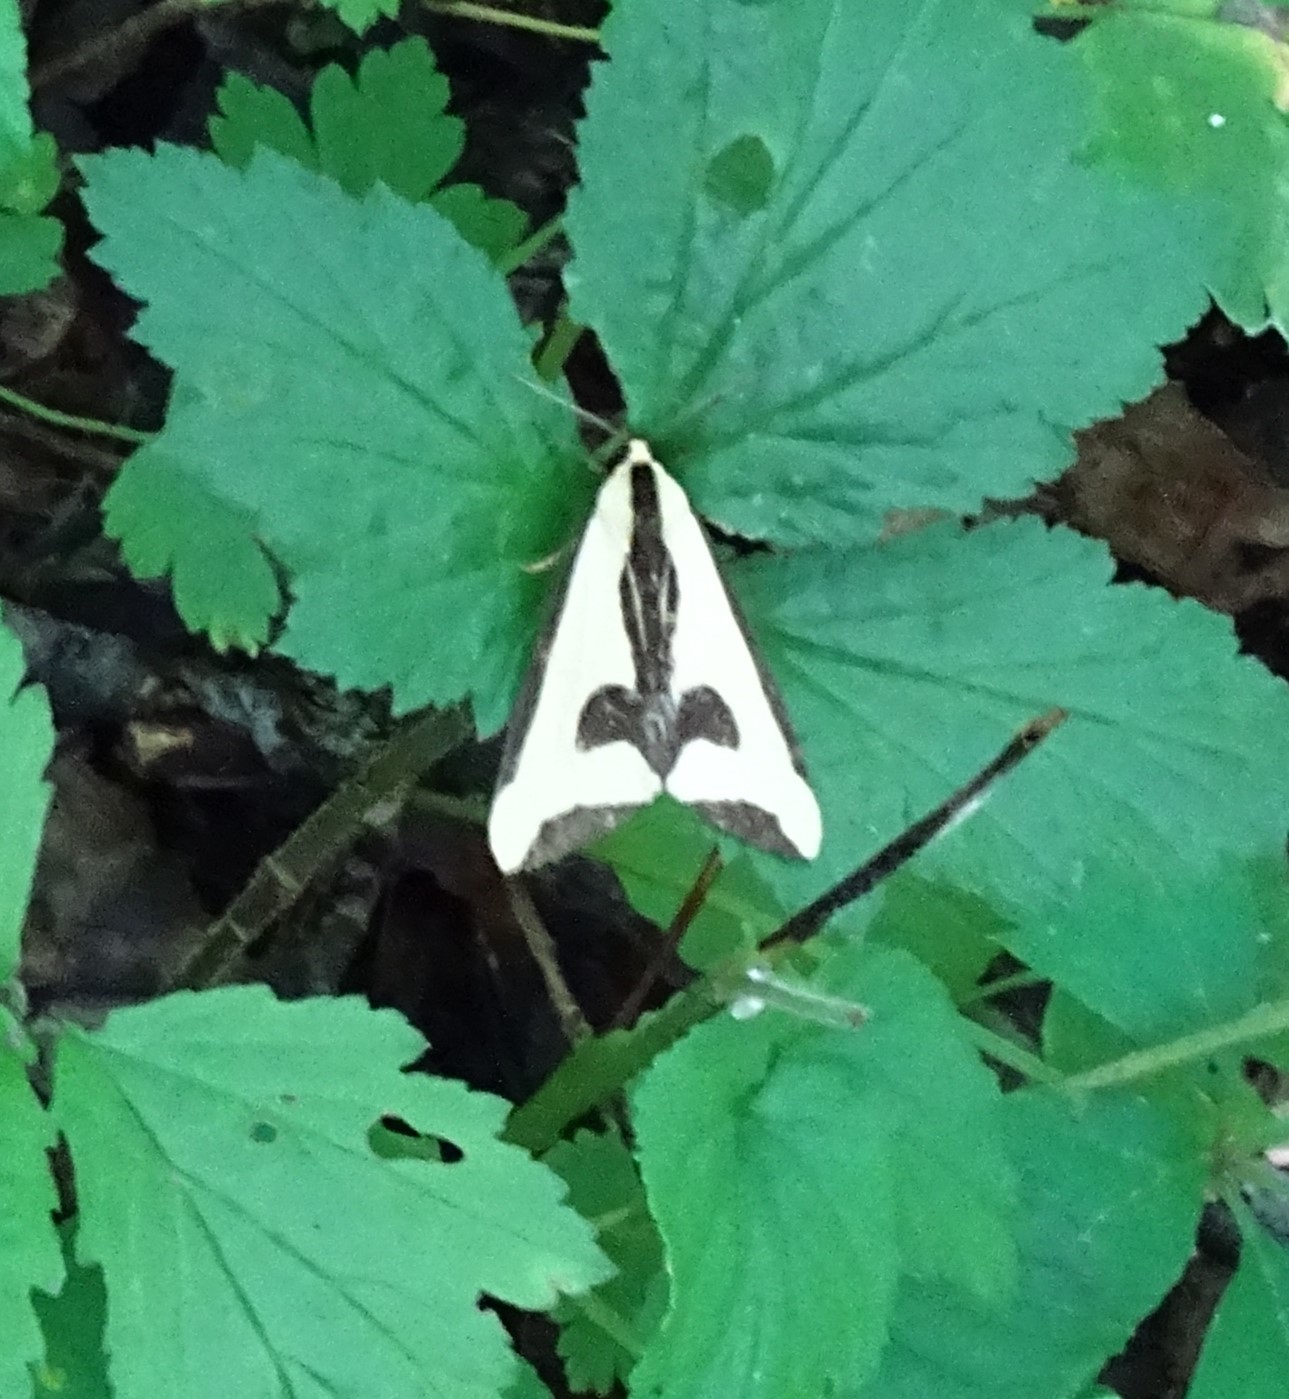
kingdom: Animalia
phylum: Arthropoda
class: Insecta
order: Lepidoptera
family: Erebidae
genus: Haploa
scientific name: Haploa clymene
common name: Clymene moth
